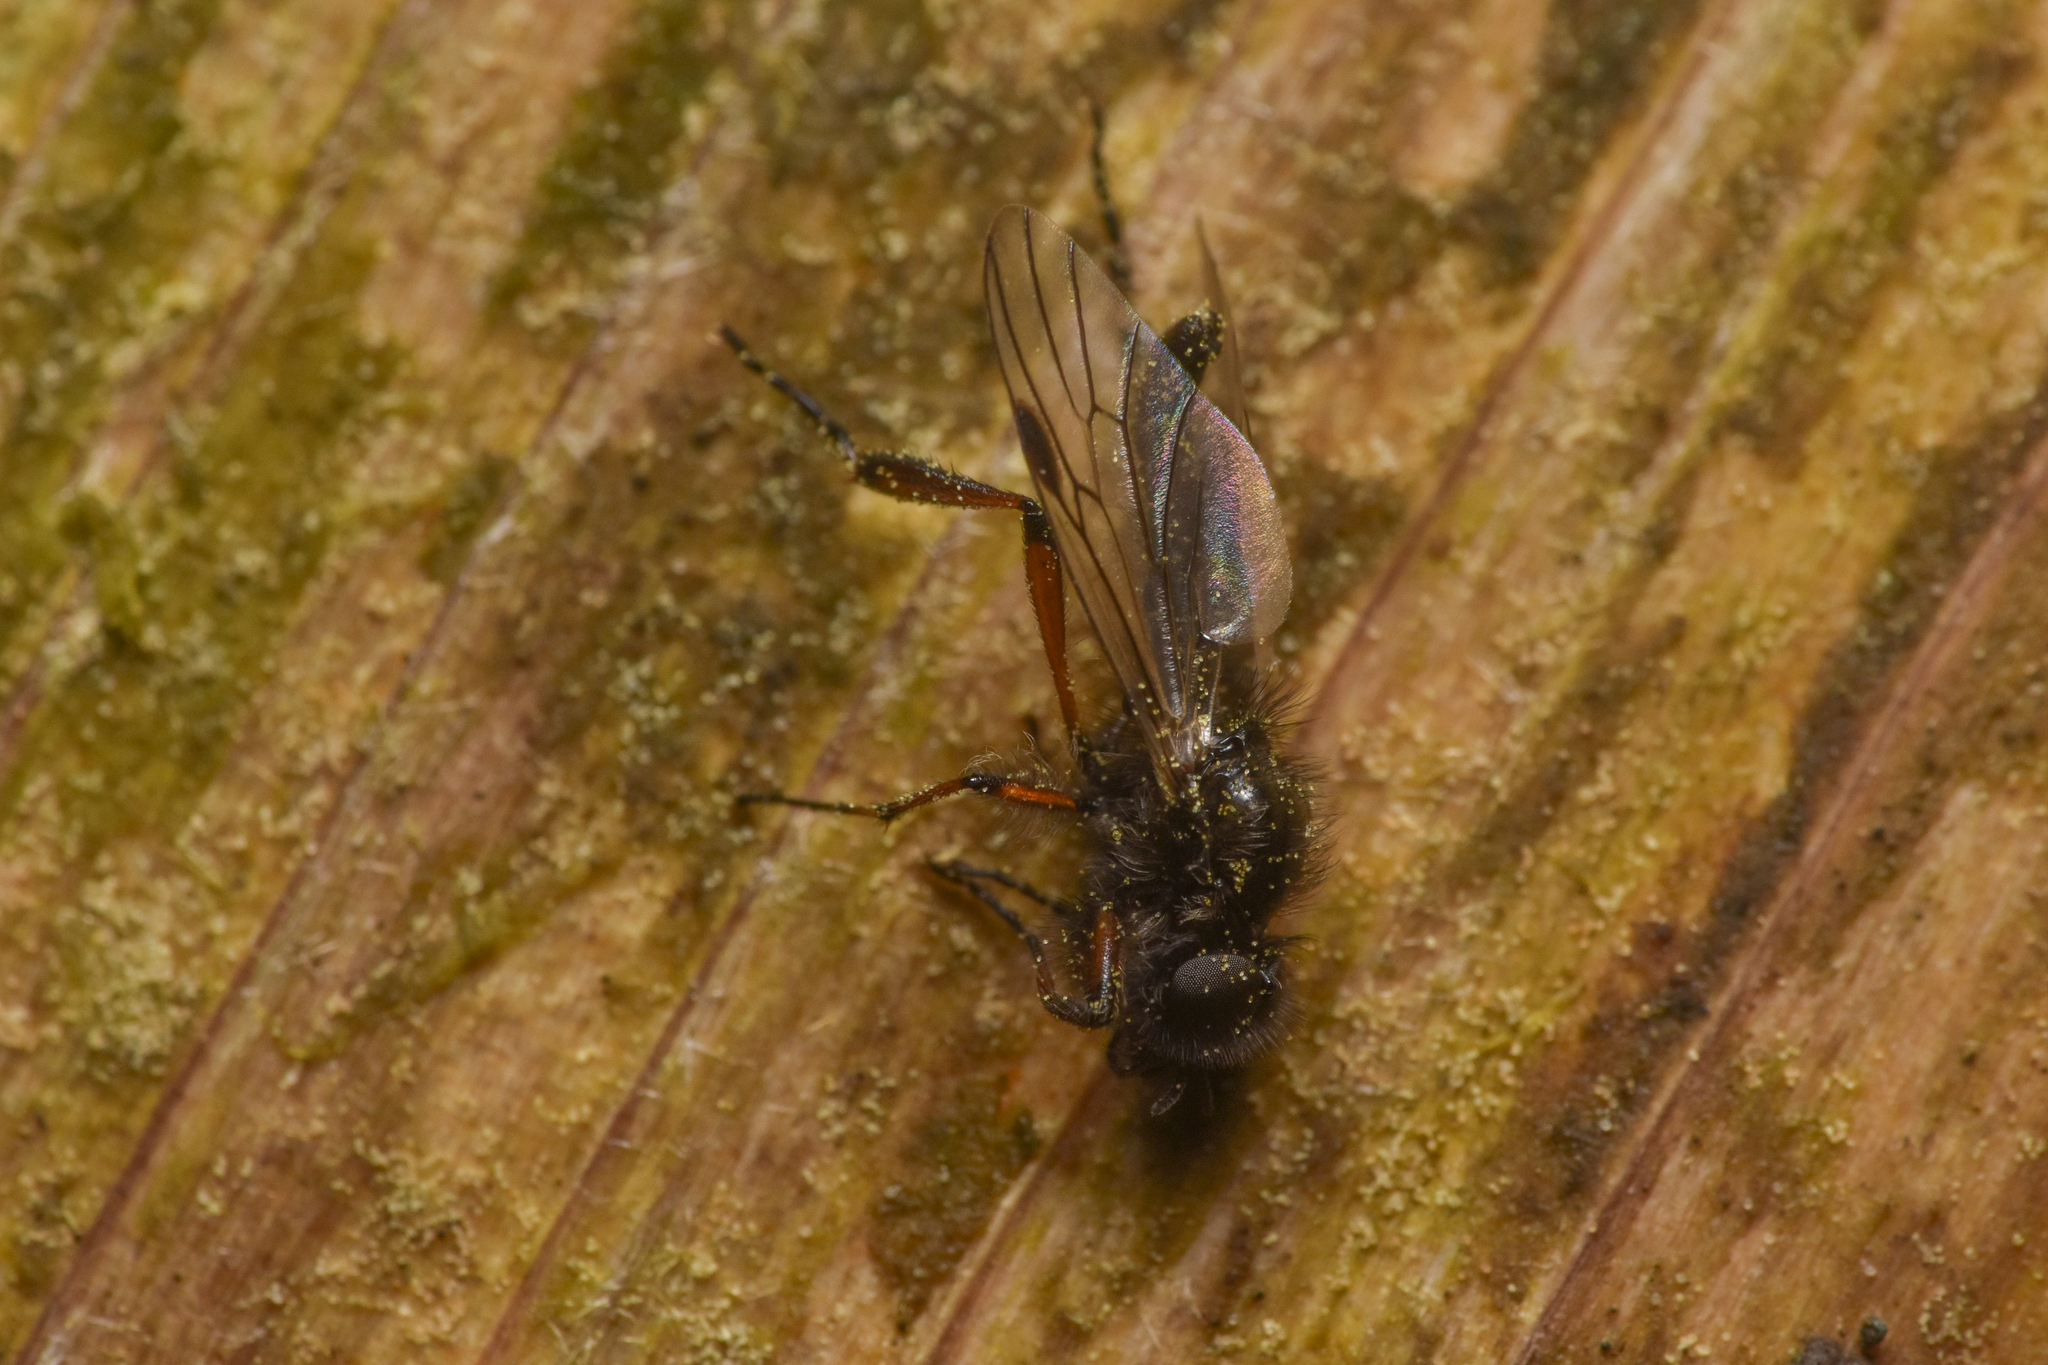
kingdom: Animalia
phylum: Arthropoda
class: Insecta
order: Diptera
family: Bibionidae
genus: Bibio
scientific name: Bibio xanthopus
